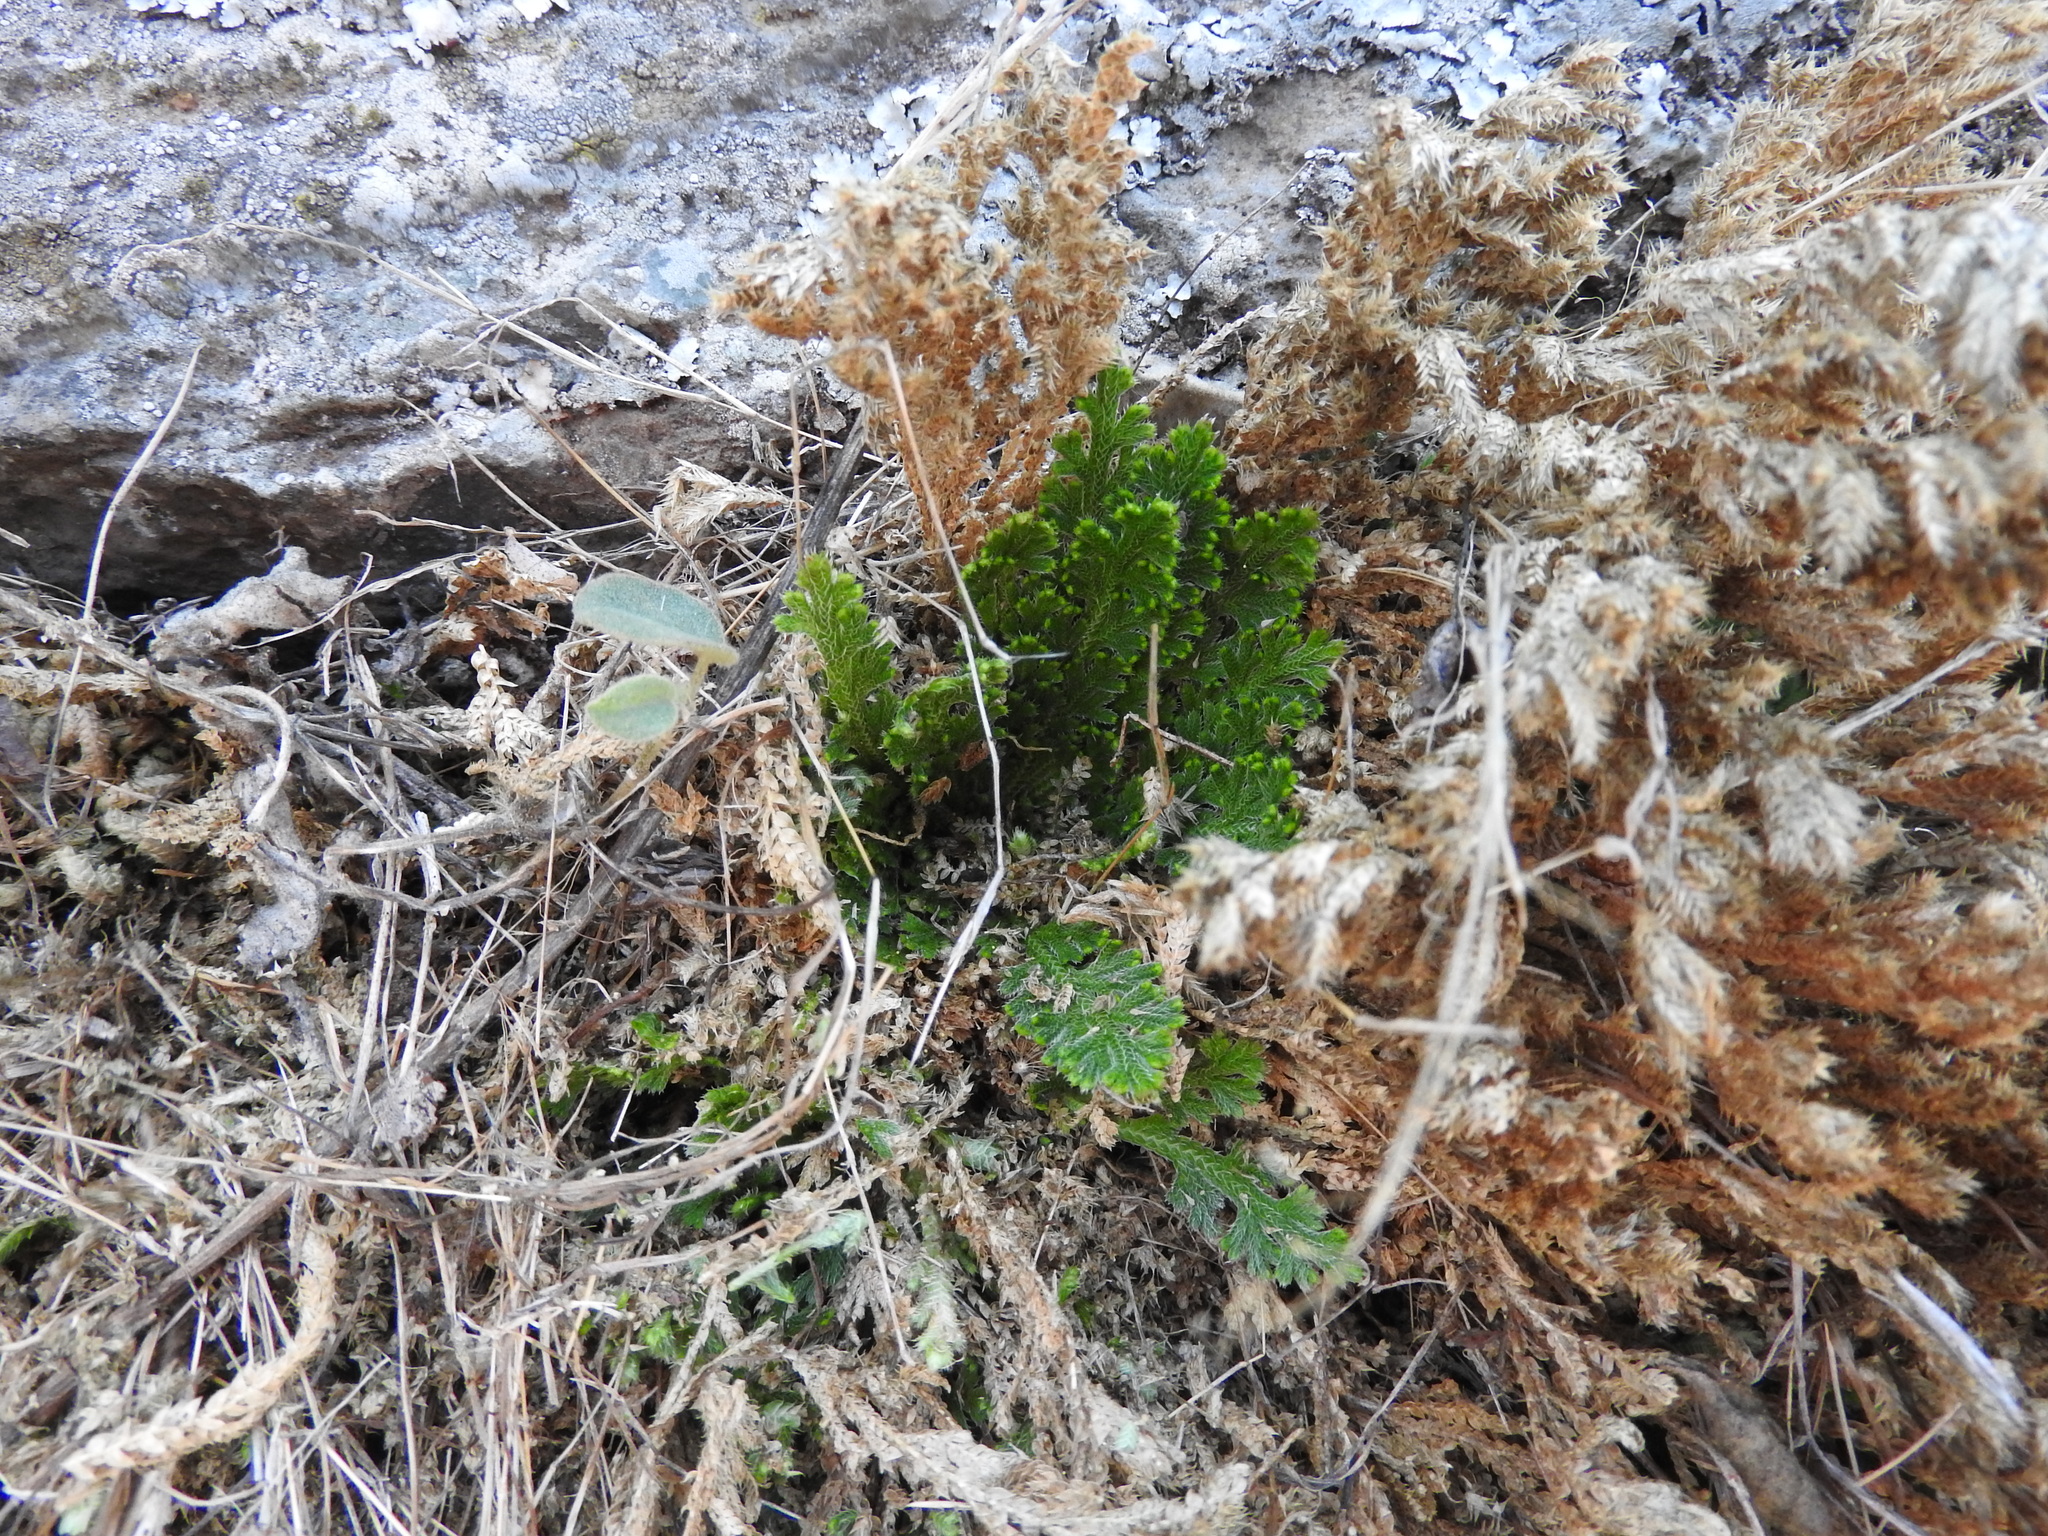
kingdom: Plantae
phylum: Tracheophyta
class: Lycopodiopsida
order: Selaginellales
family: Selaginellaceae
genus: Selaginella
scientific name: Selaginella lepidophylla
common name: Rose-of-jericho
